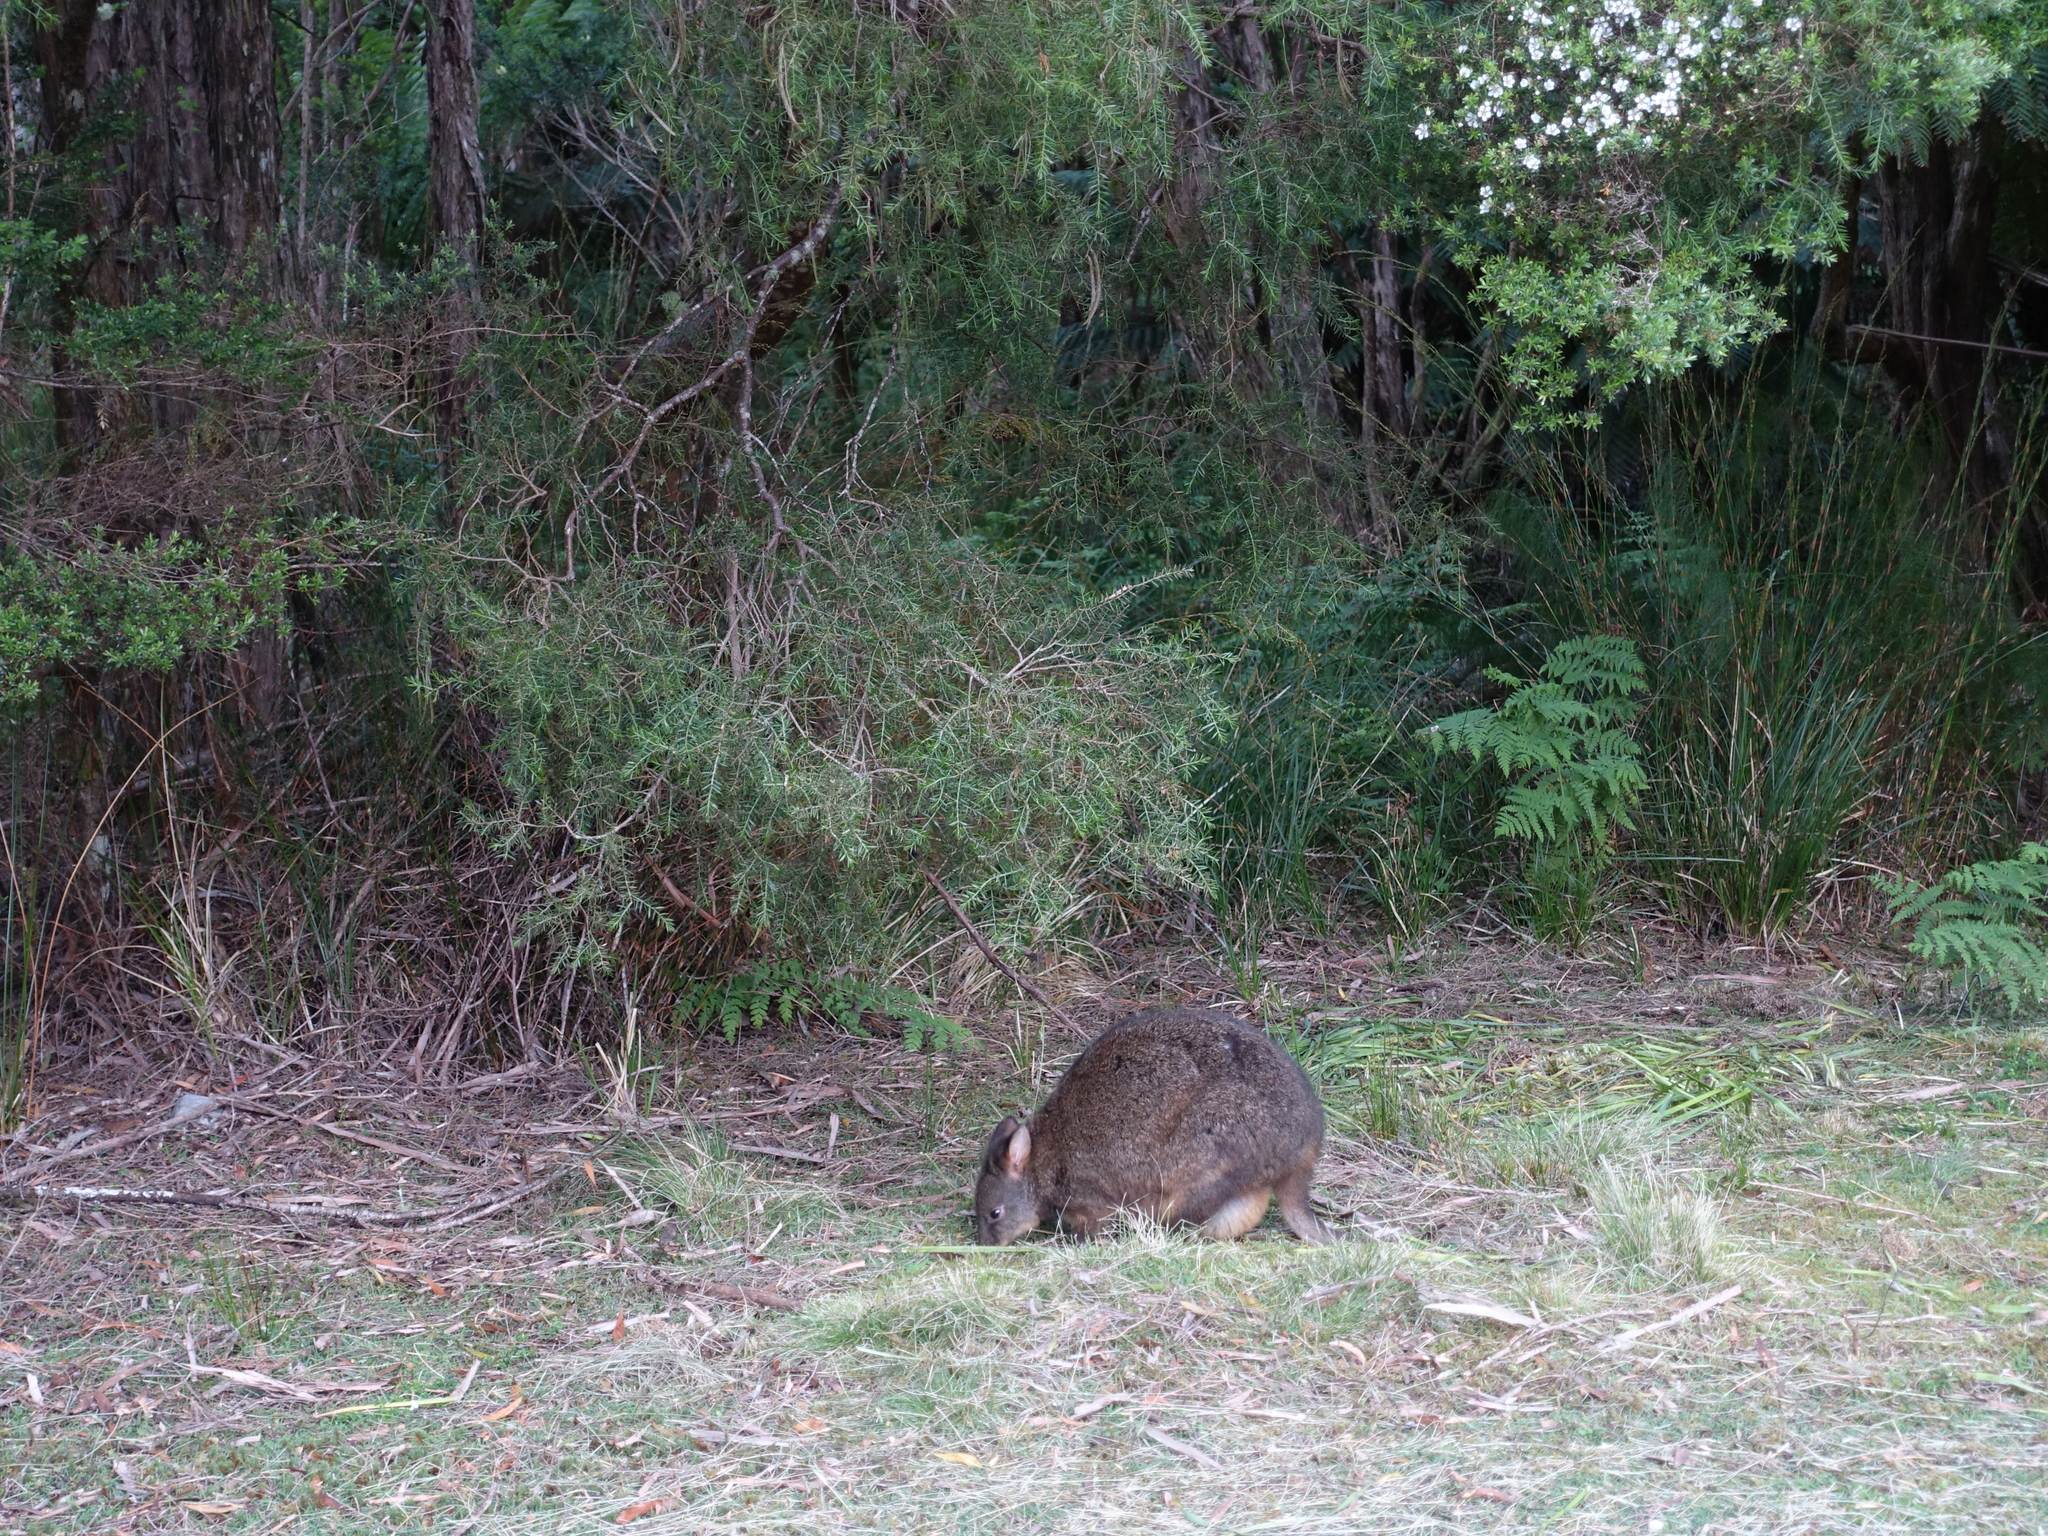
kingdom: Animalia
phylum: Chordata
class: Mammalia
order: Diprotodontia
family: Macropodidae
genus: Thylogale
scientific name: Thylogale billardierii
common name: Tasmanian pademelon
